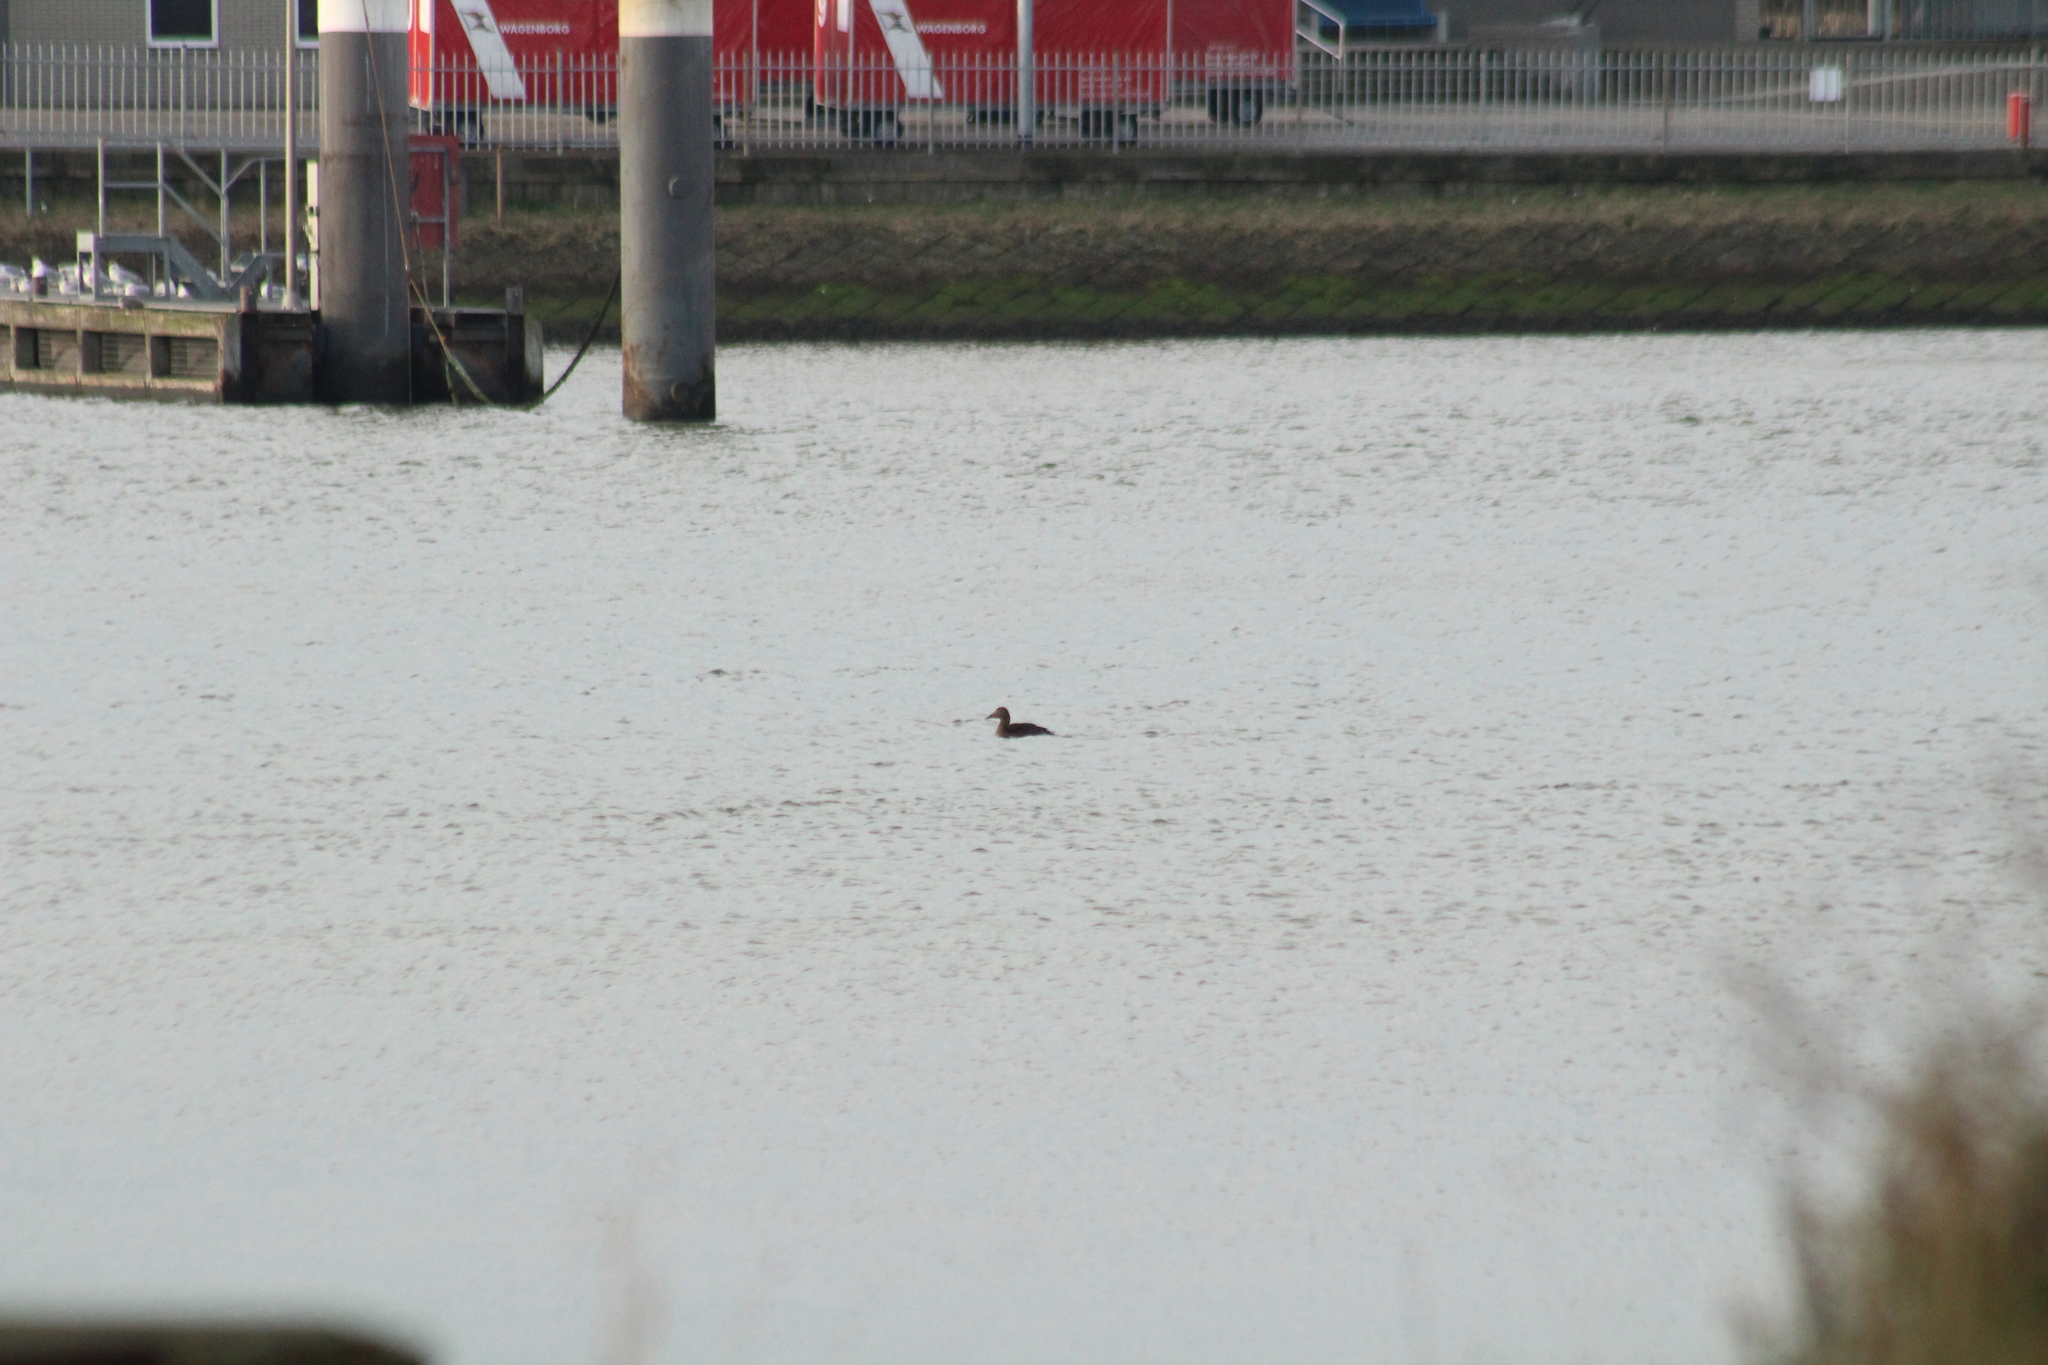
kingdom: Animalia
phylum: Chordata
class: Aves
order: Anseriformes
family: Anatidae
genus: Somateria
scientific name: Somateria mollissima
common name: Common eider
